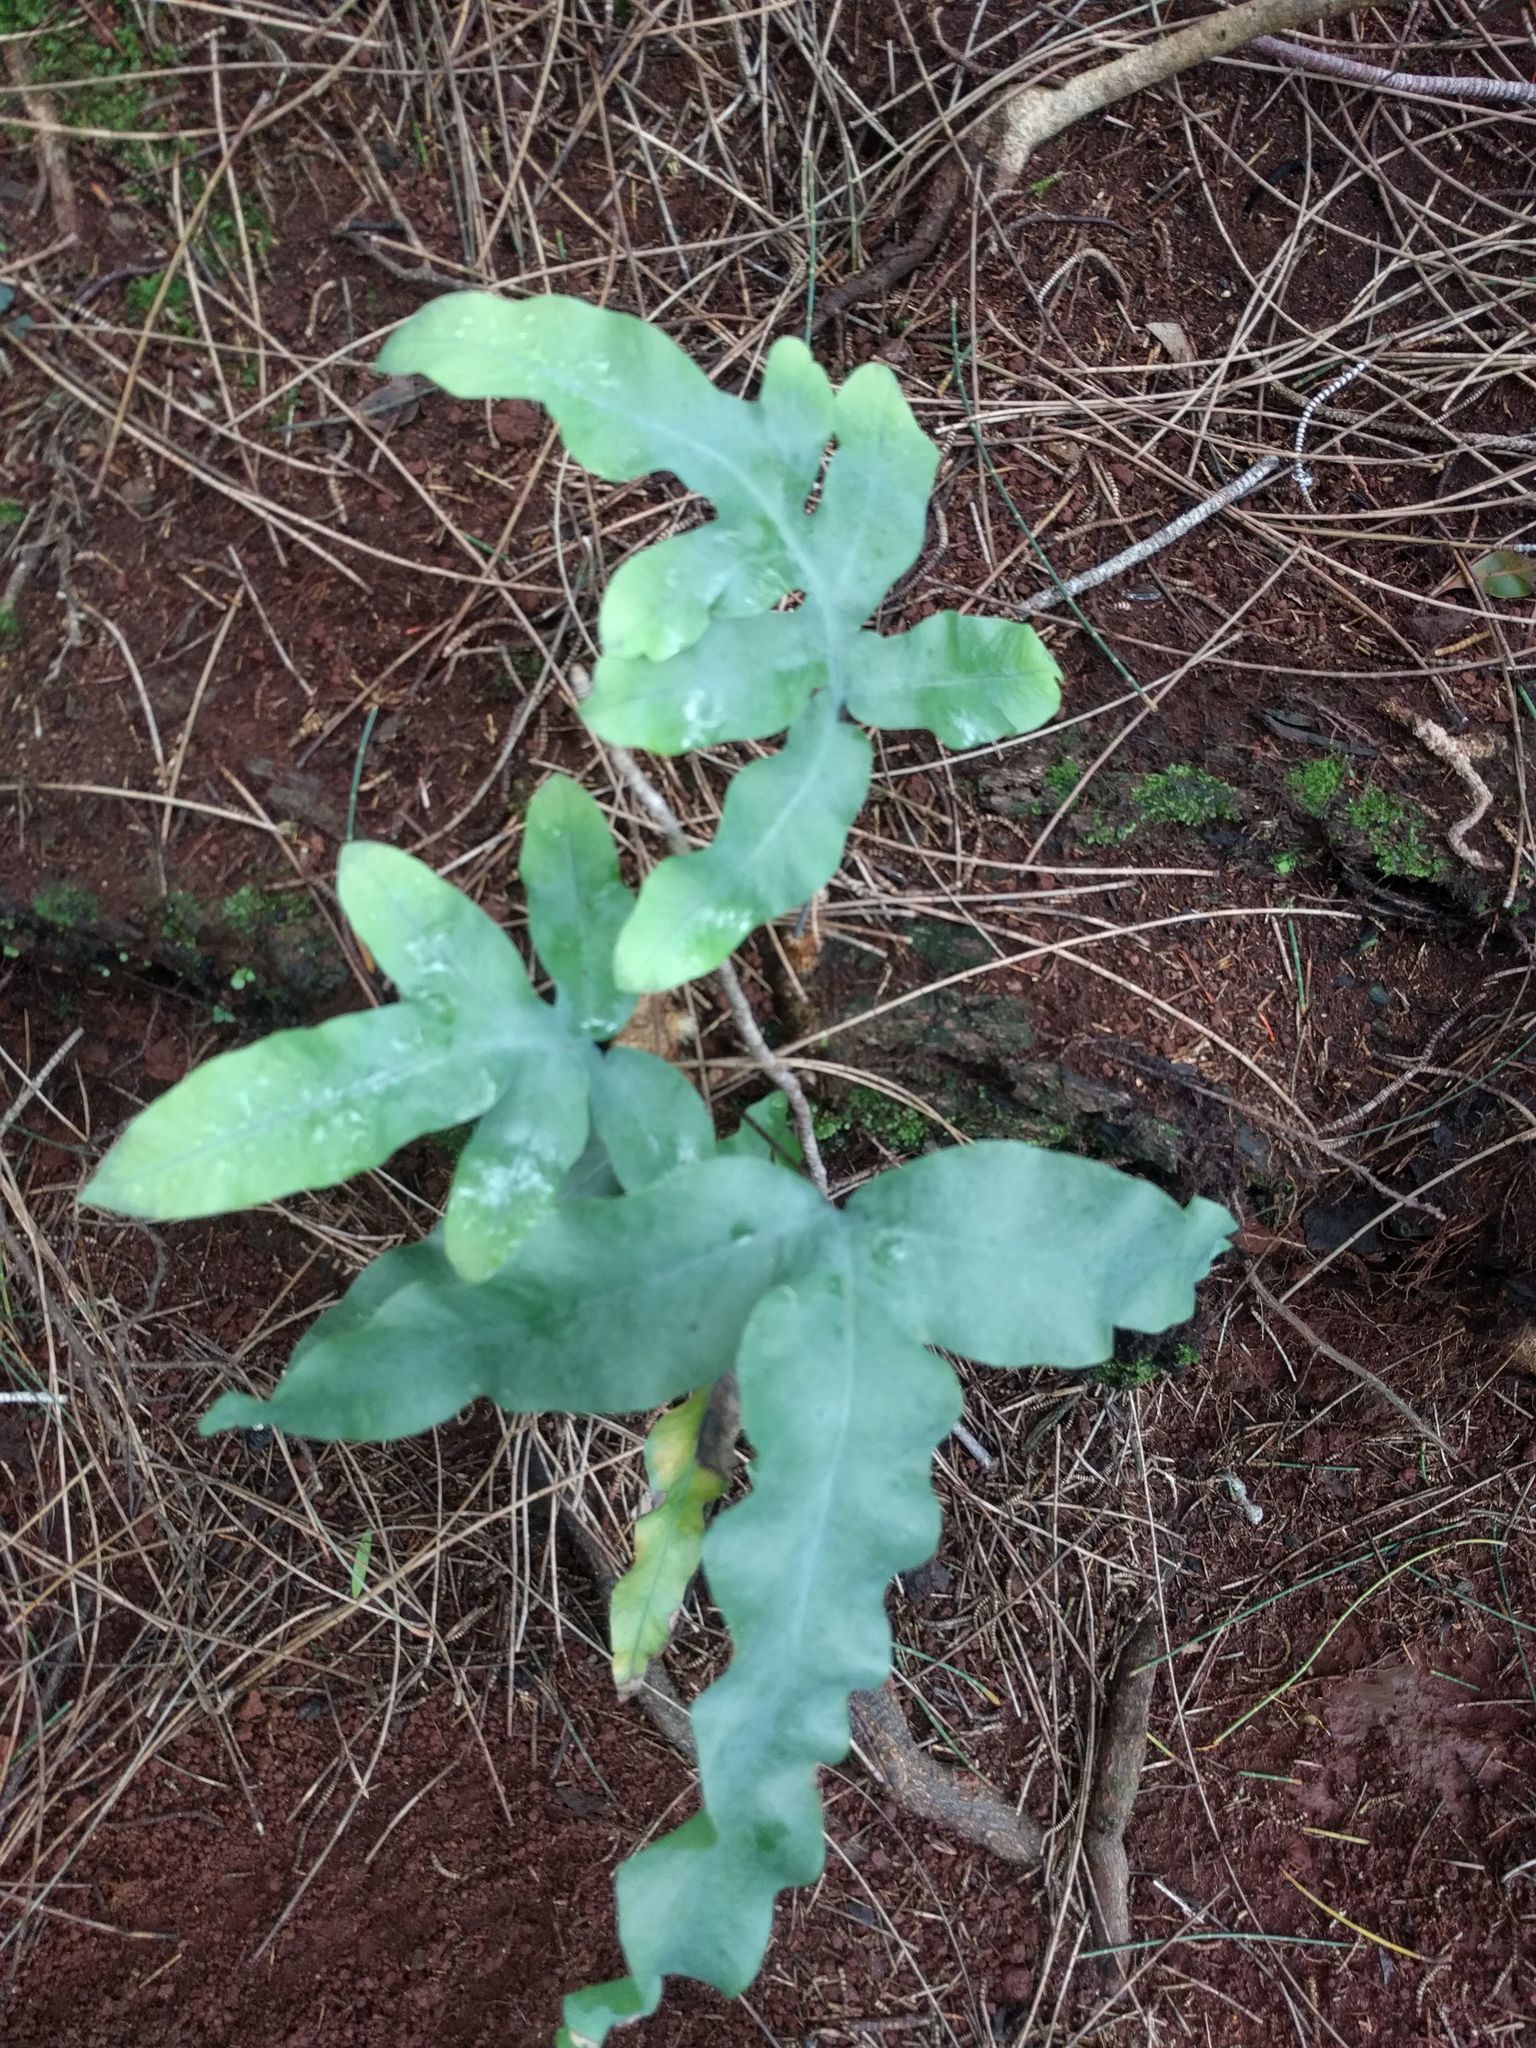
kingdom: Plantae
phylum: Tracheophyta
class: Polypodiopsida
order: Polypodiales
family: Polypodiaceae
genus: Phlebodium
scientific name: Phlebodium aureum
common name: Gold-foot fern
